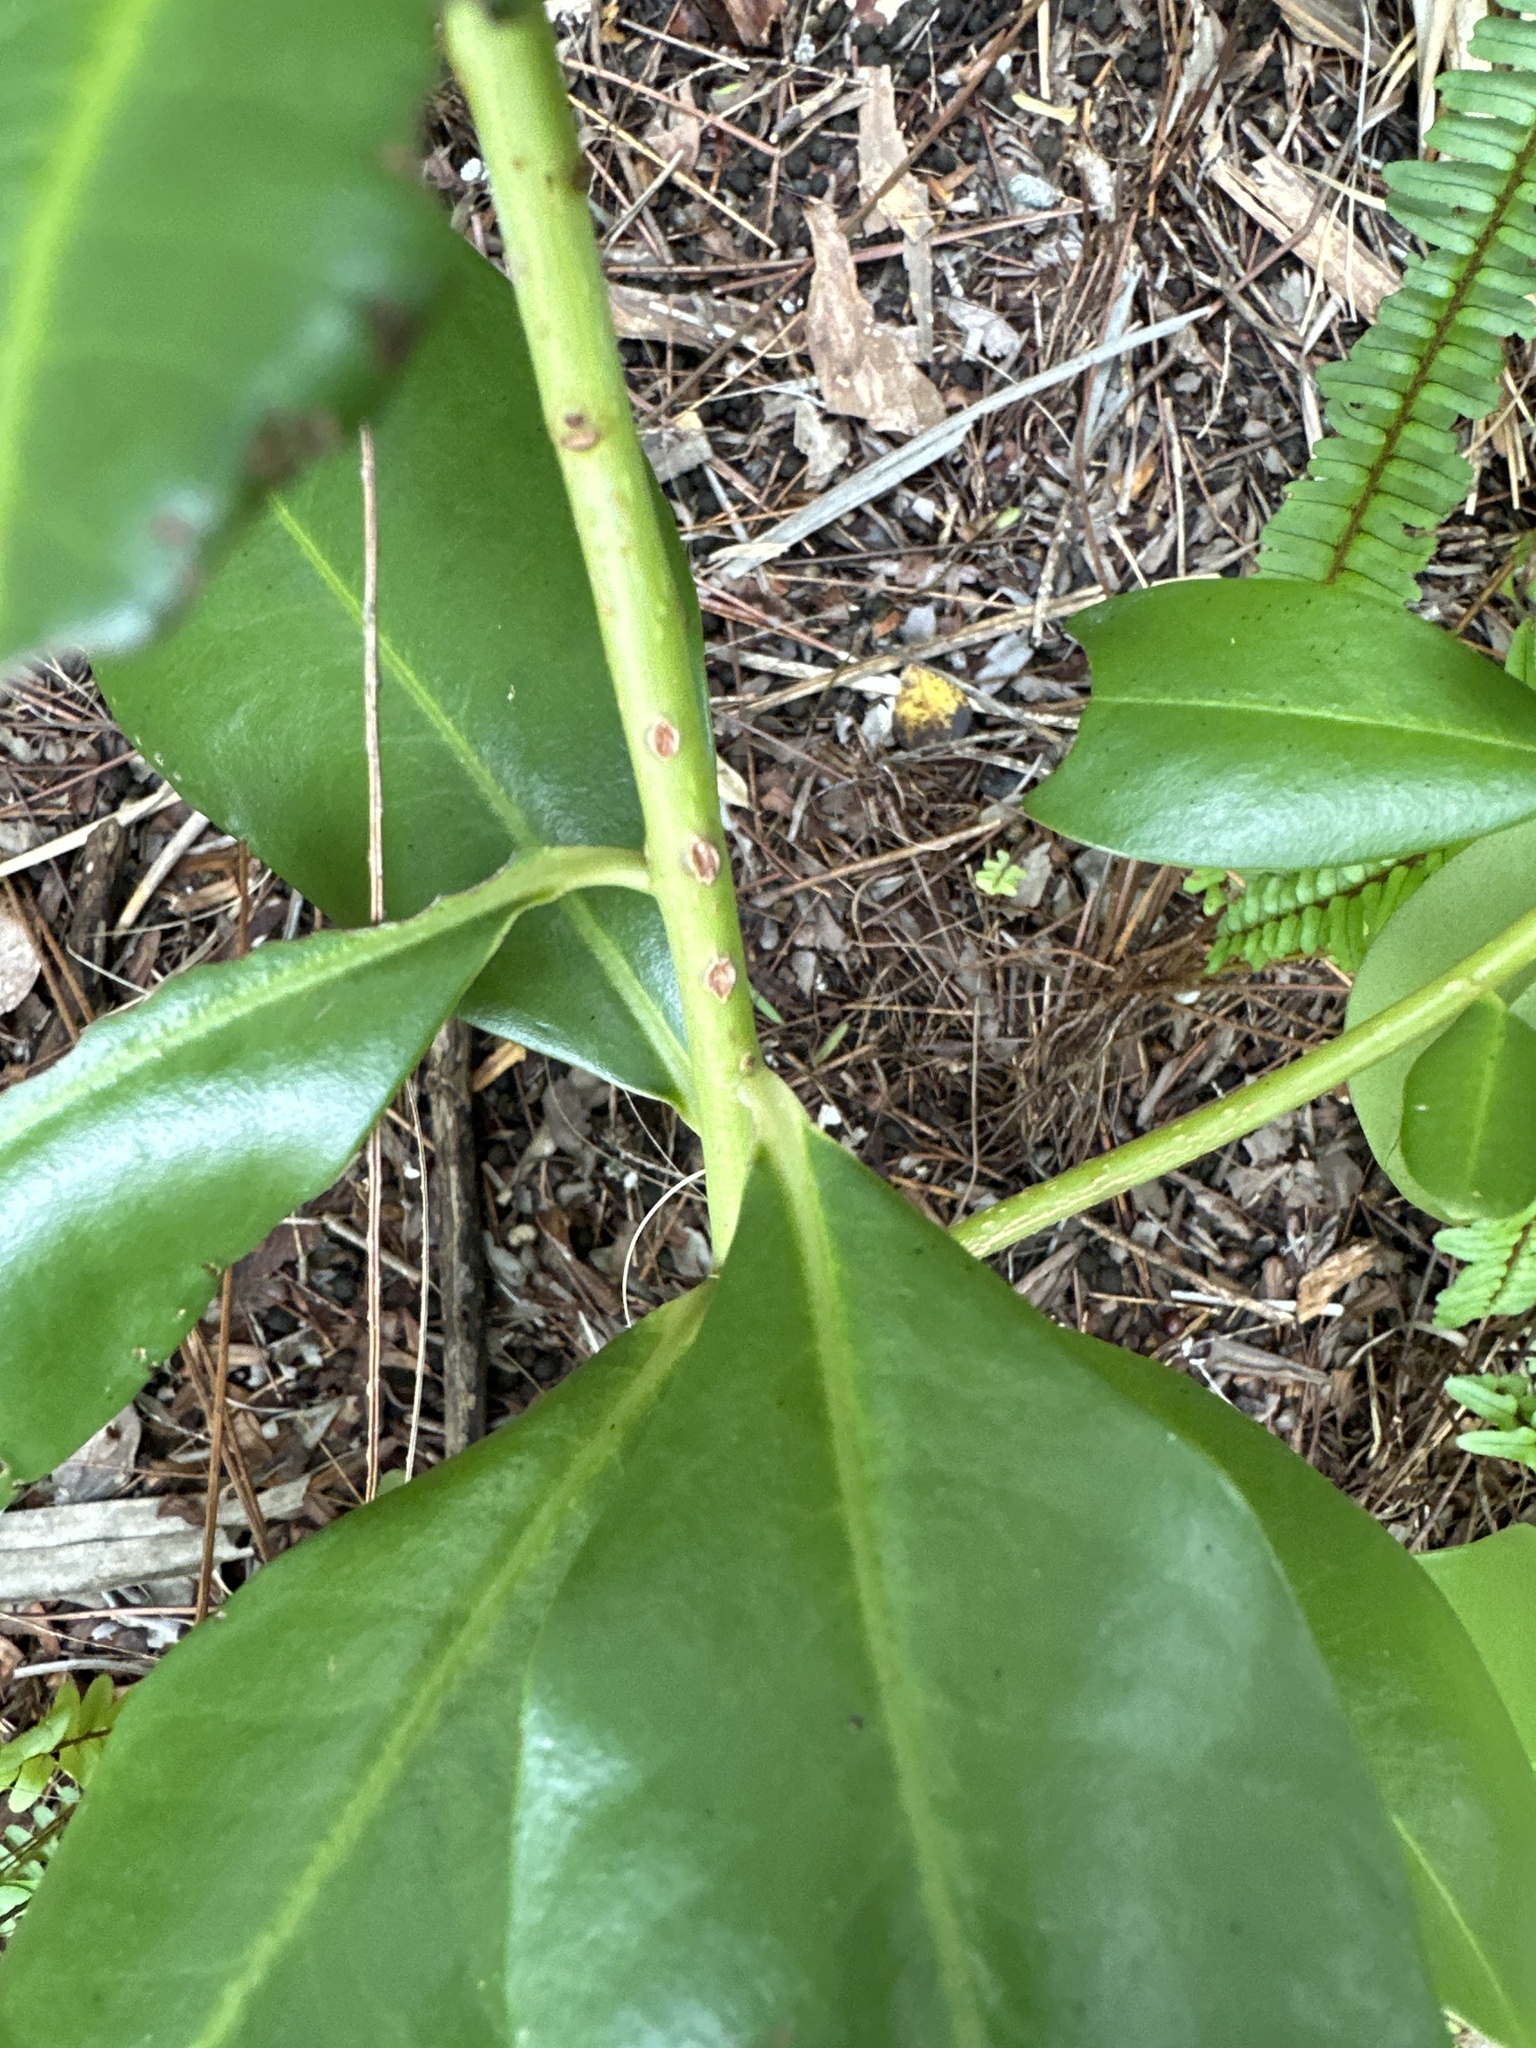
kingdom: Plantae
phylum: Tracheophyta
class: Magnoliopsida
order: Ericales
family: Primulaceae
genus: Myrsine
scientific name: Myrsine floridana
